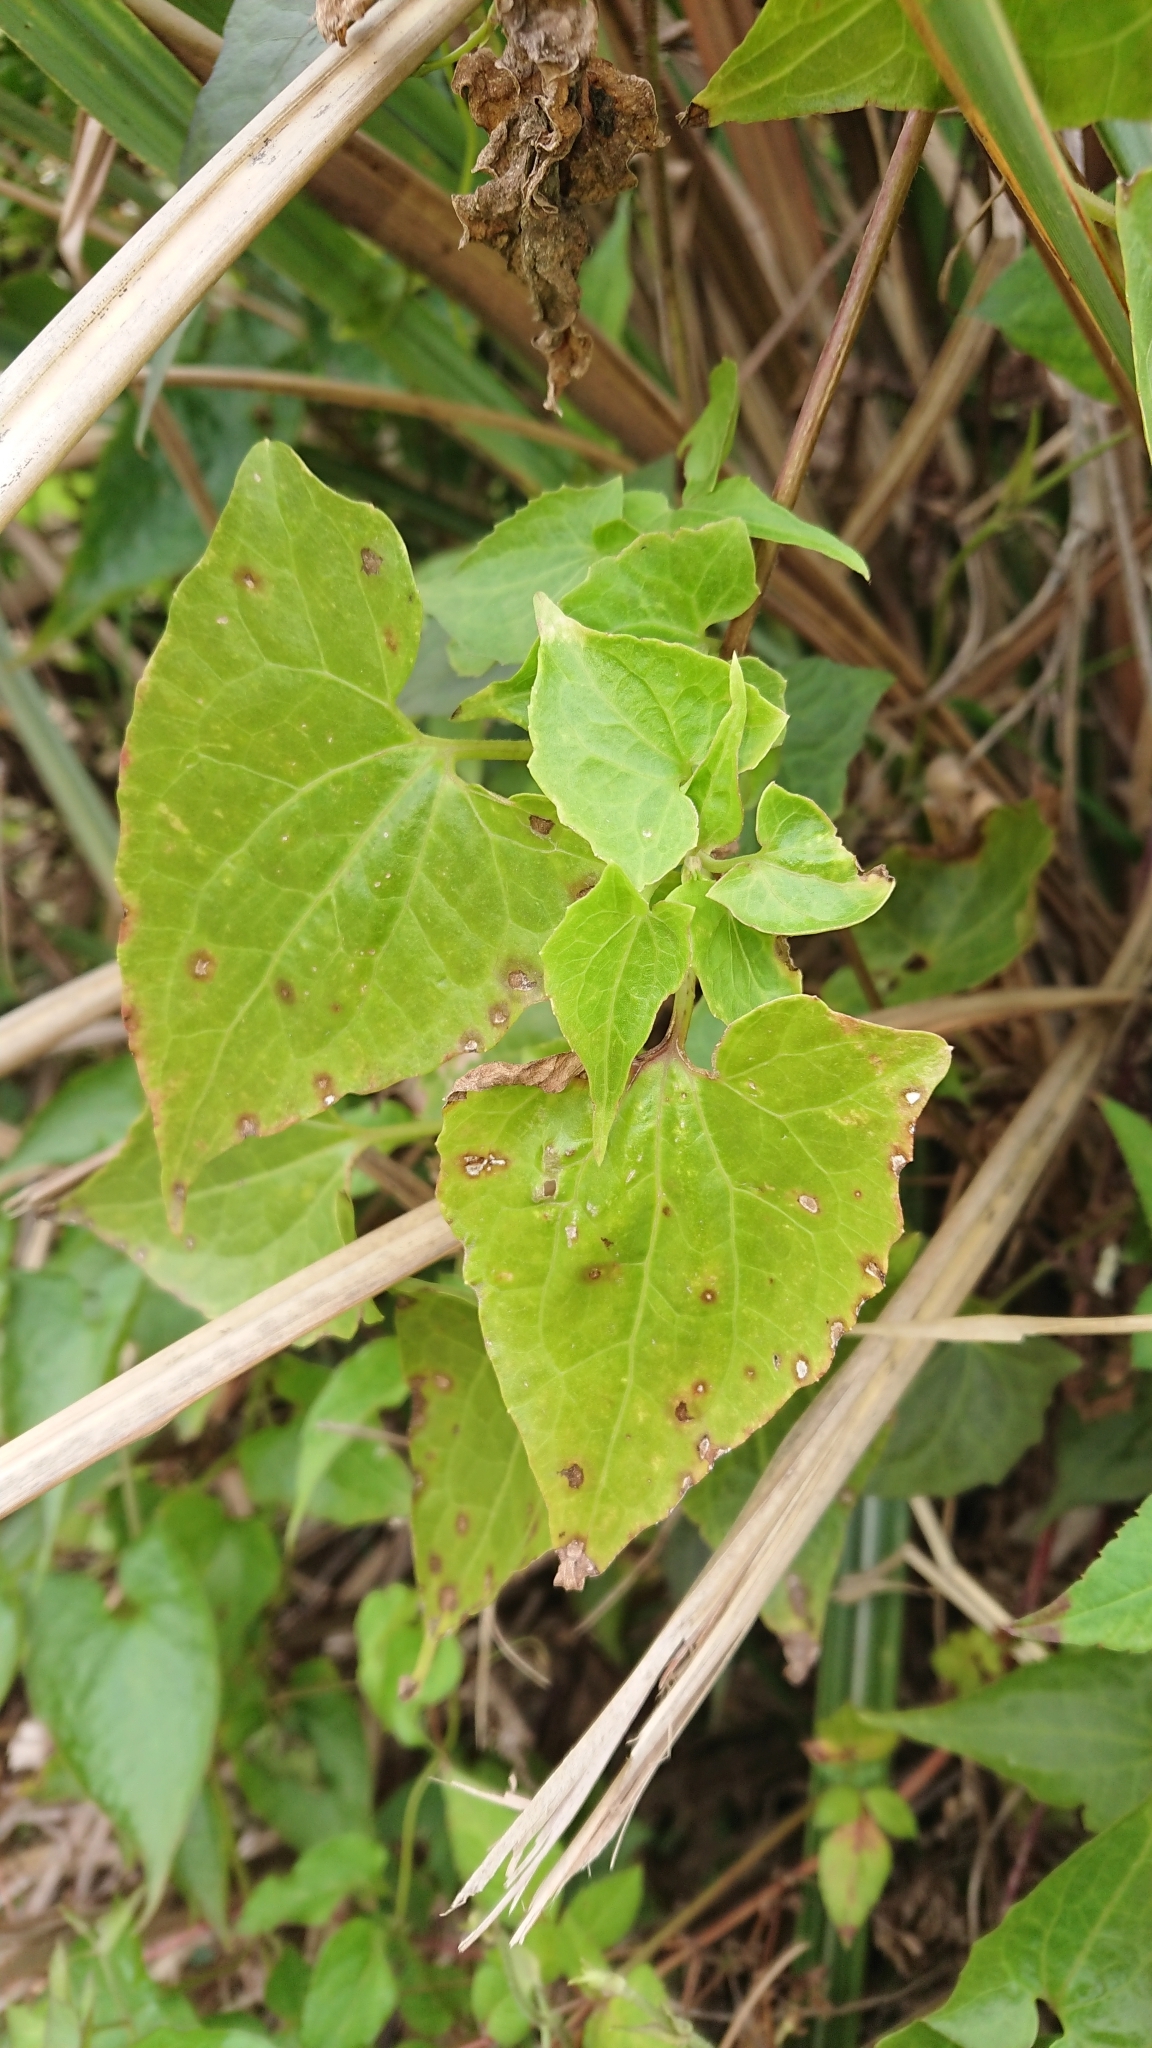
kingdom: Plantae
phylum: Tracheophyta
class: Magnoliopsida
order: Asterales
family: Asteraceae
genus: Mikania
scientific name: Mikania micrantha
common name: Mile-a-minute
